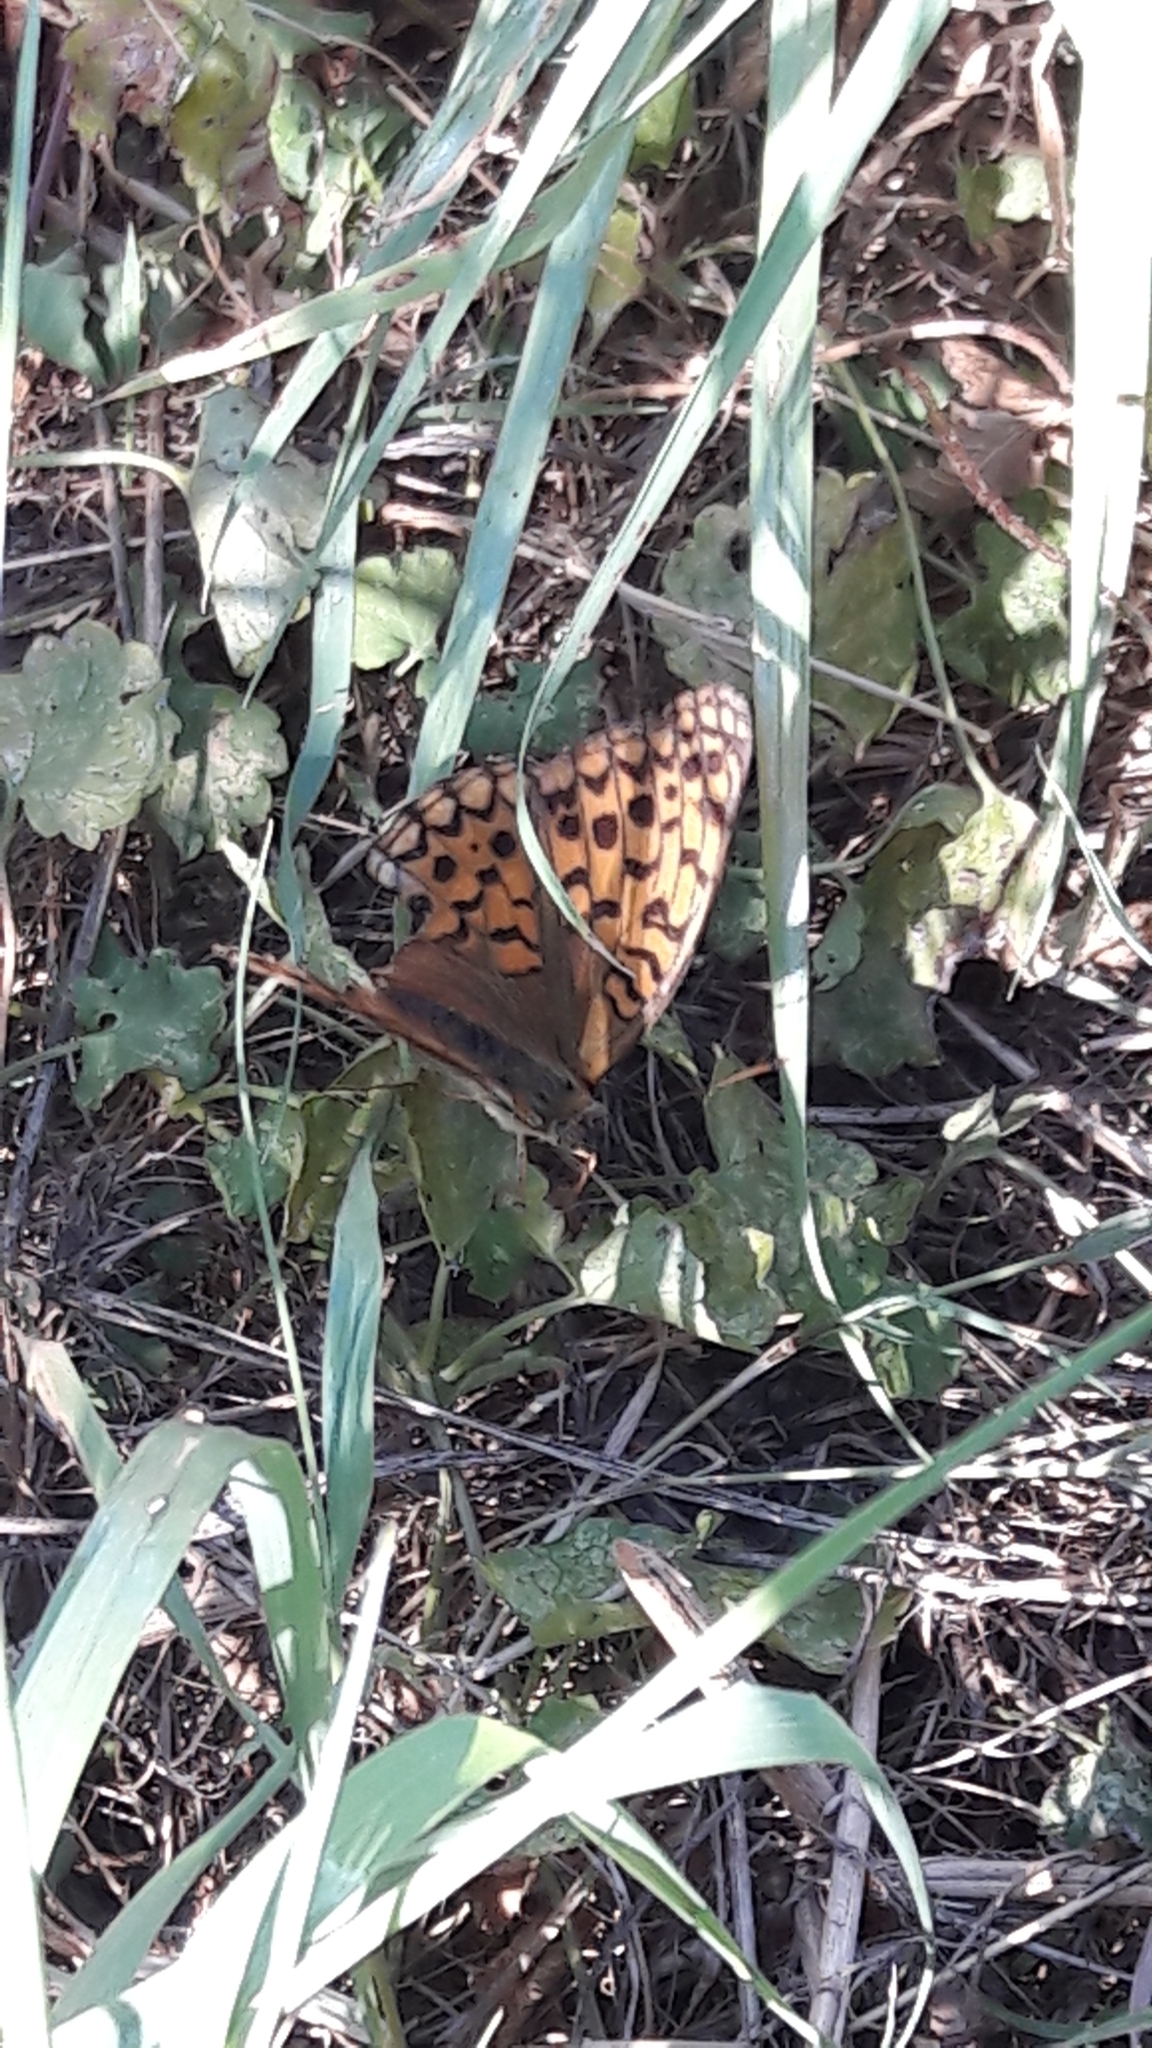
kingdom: Animalia
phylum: Arthropoda
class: Insecta
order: Lepidoptera
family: Nymphalidae
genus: Fabriciana
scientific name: Fabriciana adippe
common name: High brown fritillary
